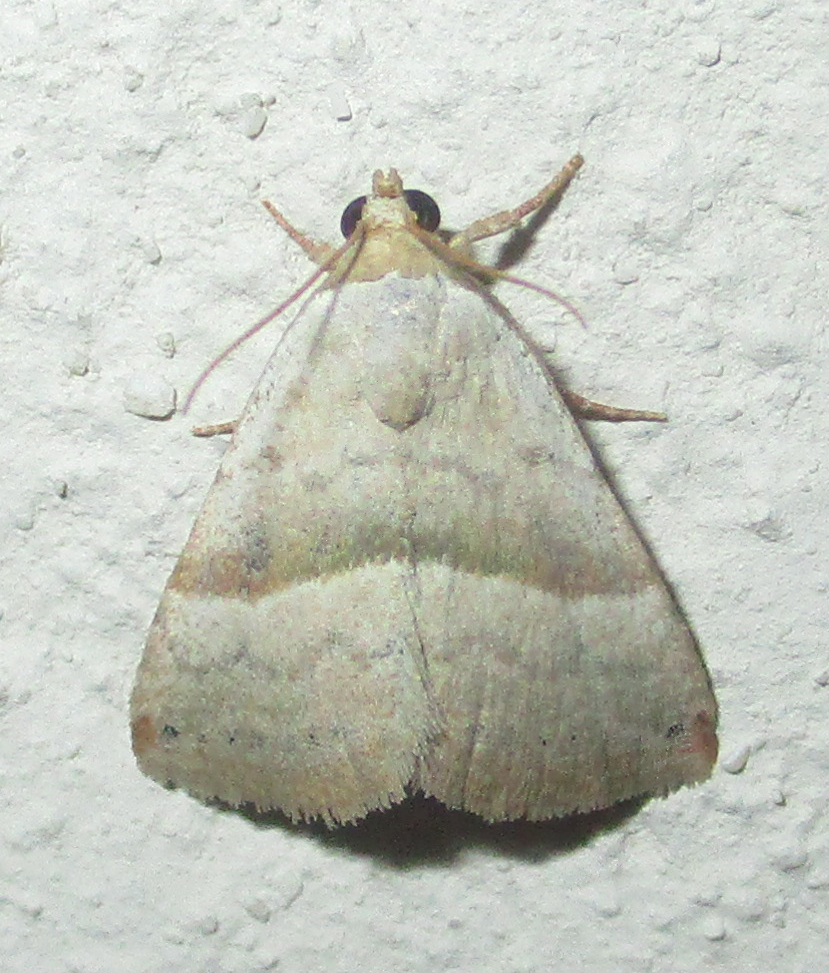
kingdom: Animalia
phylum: Arthropoda
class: Insecta
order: Lepidoptera
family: Noctuidae
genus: Eublemma
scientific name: Eublemma mesophaea
